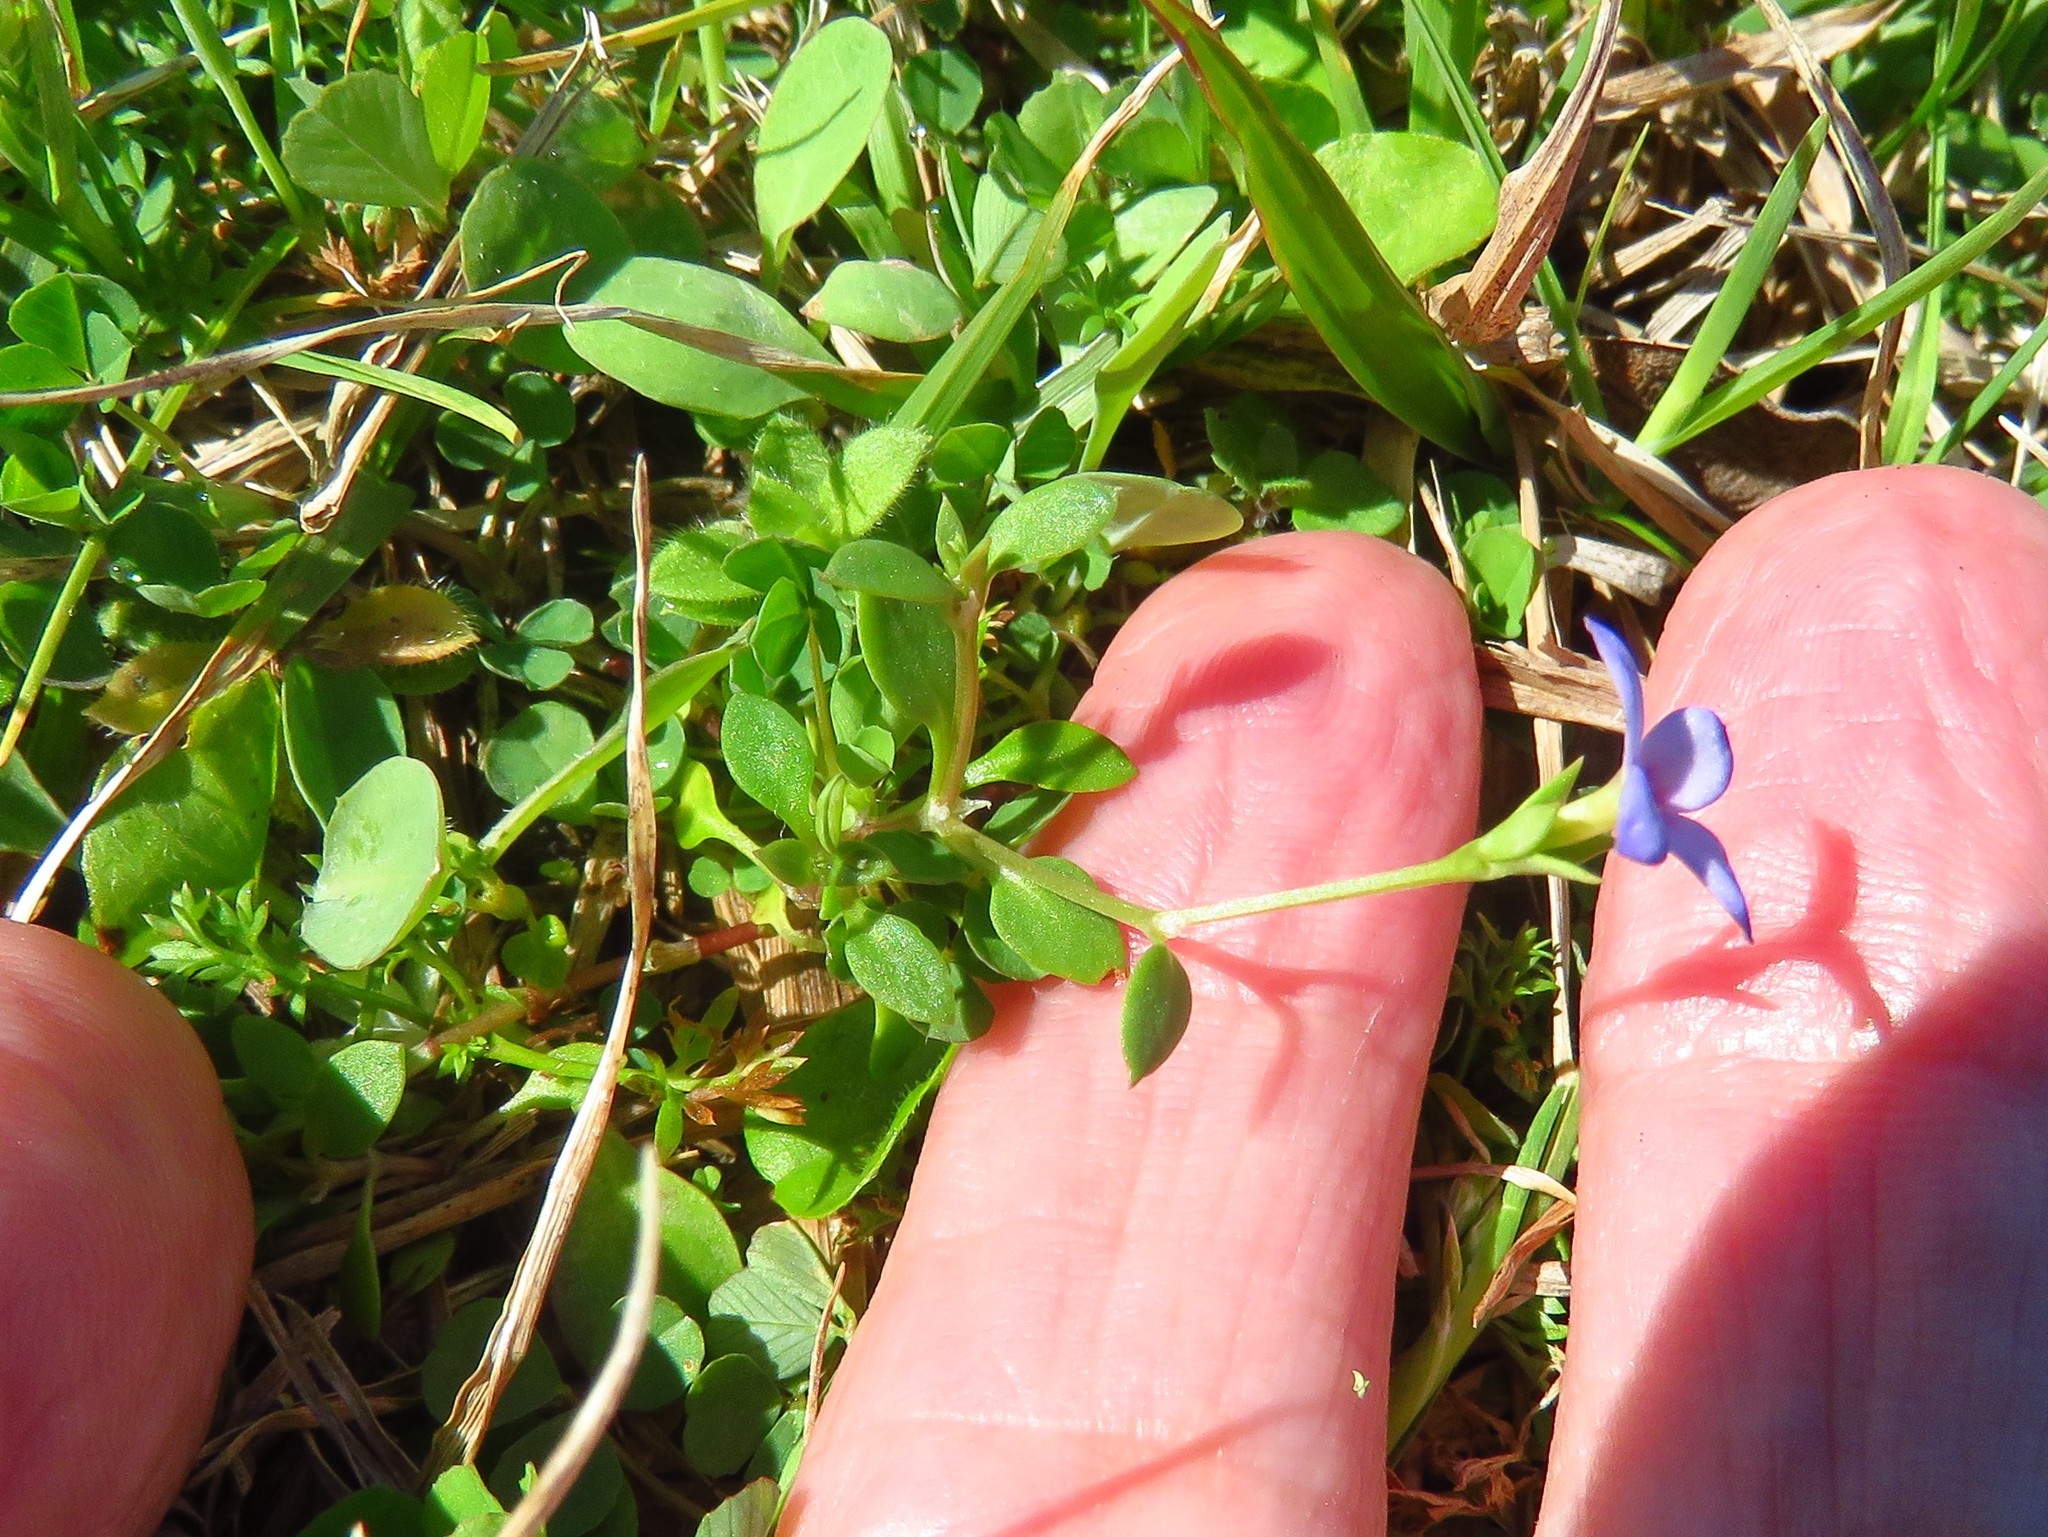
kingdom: Plantae
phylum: Tracheophyta
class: Magnoliopsida
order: Gentianales
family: Rubiaceae
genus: Houstonia
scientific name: Houstonia pusilla
